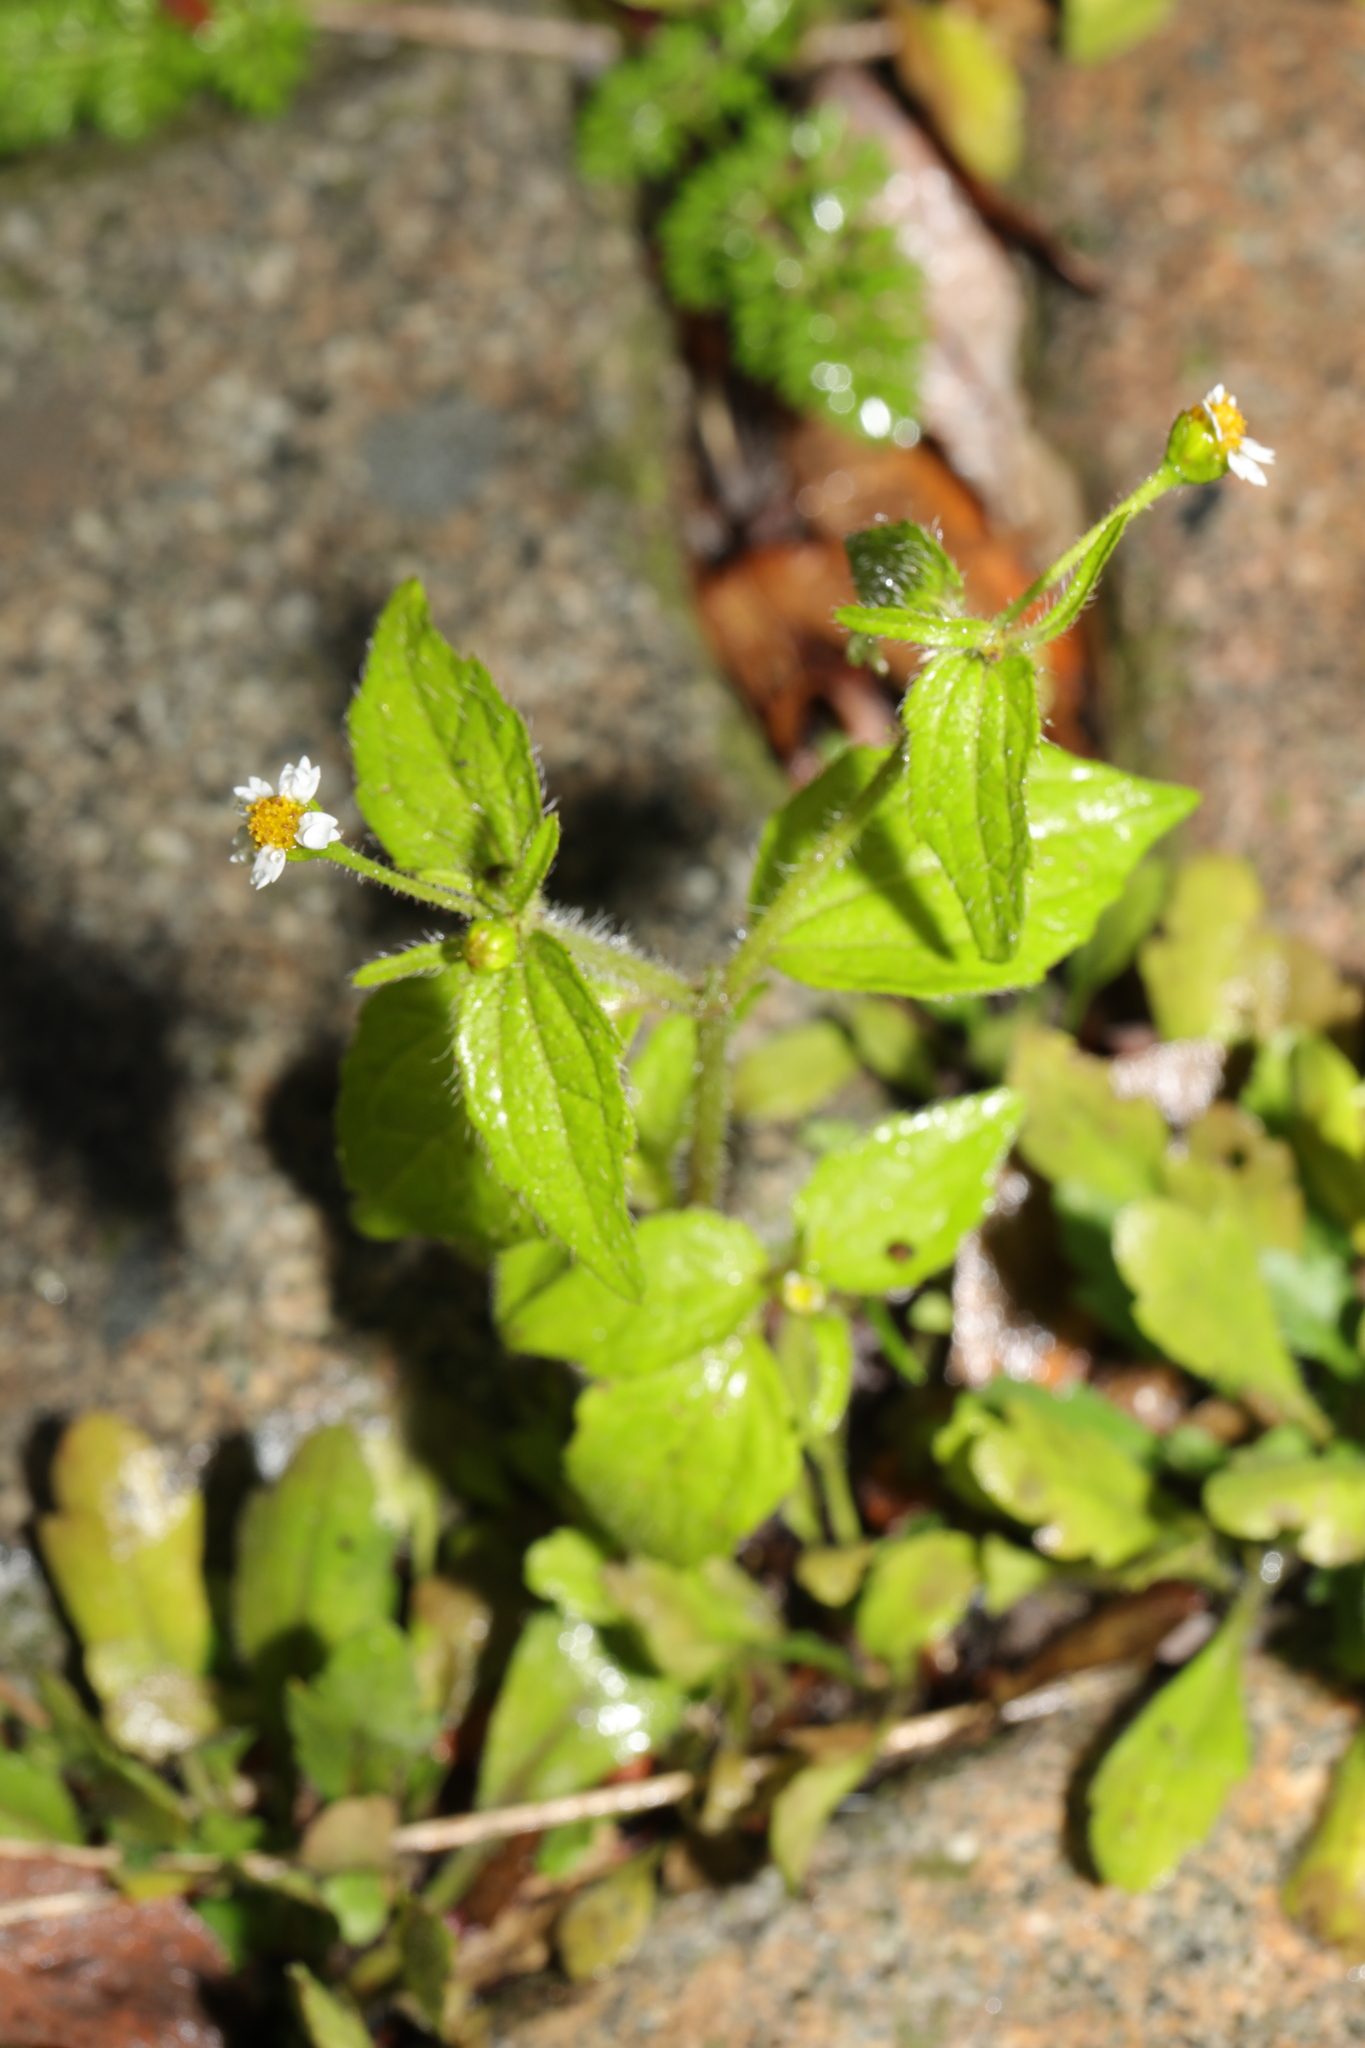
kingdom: Plantae
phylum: Tracheophyta
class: Magnoliopsida
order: Asterales
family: Asteraceae
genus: Galinsoga
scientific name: Galinsoga quadriradiata
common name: Shaggy soldier
